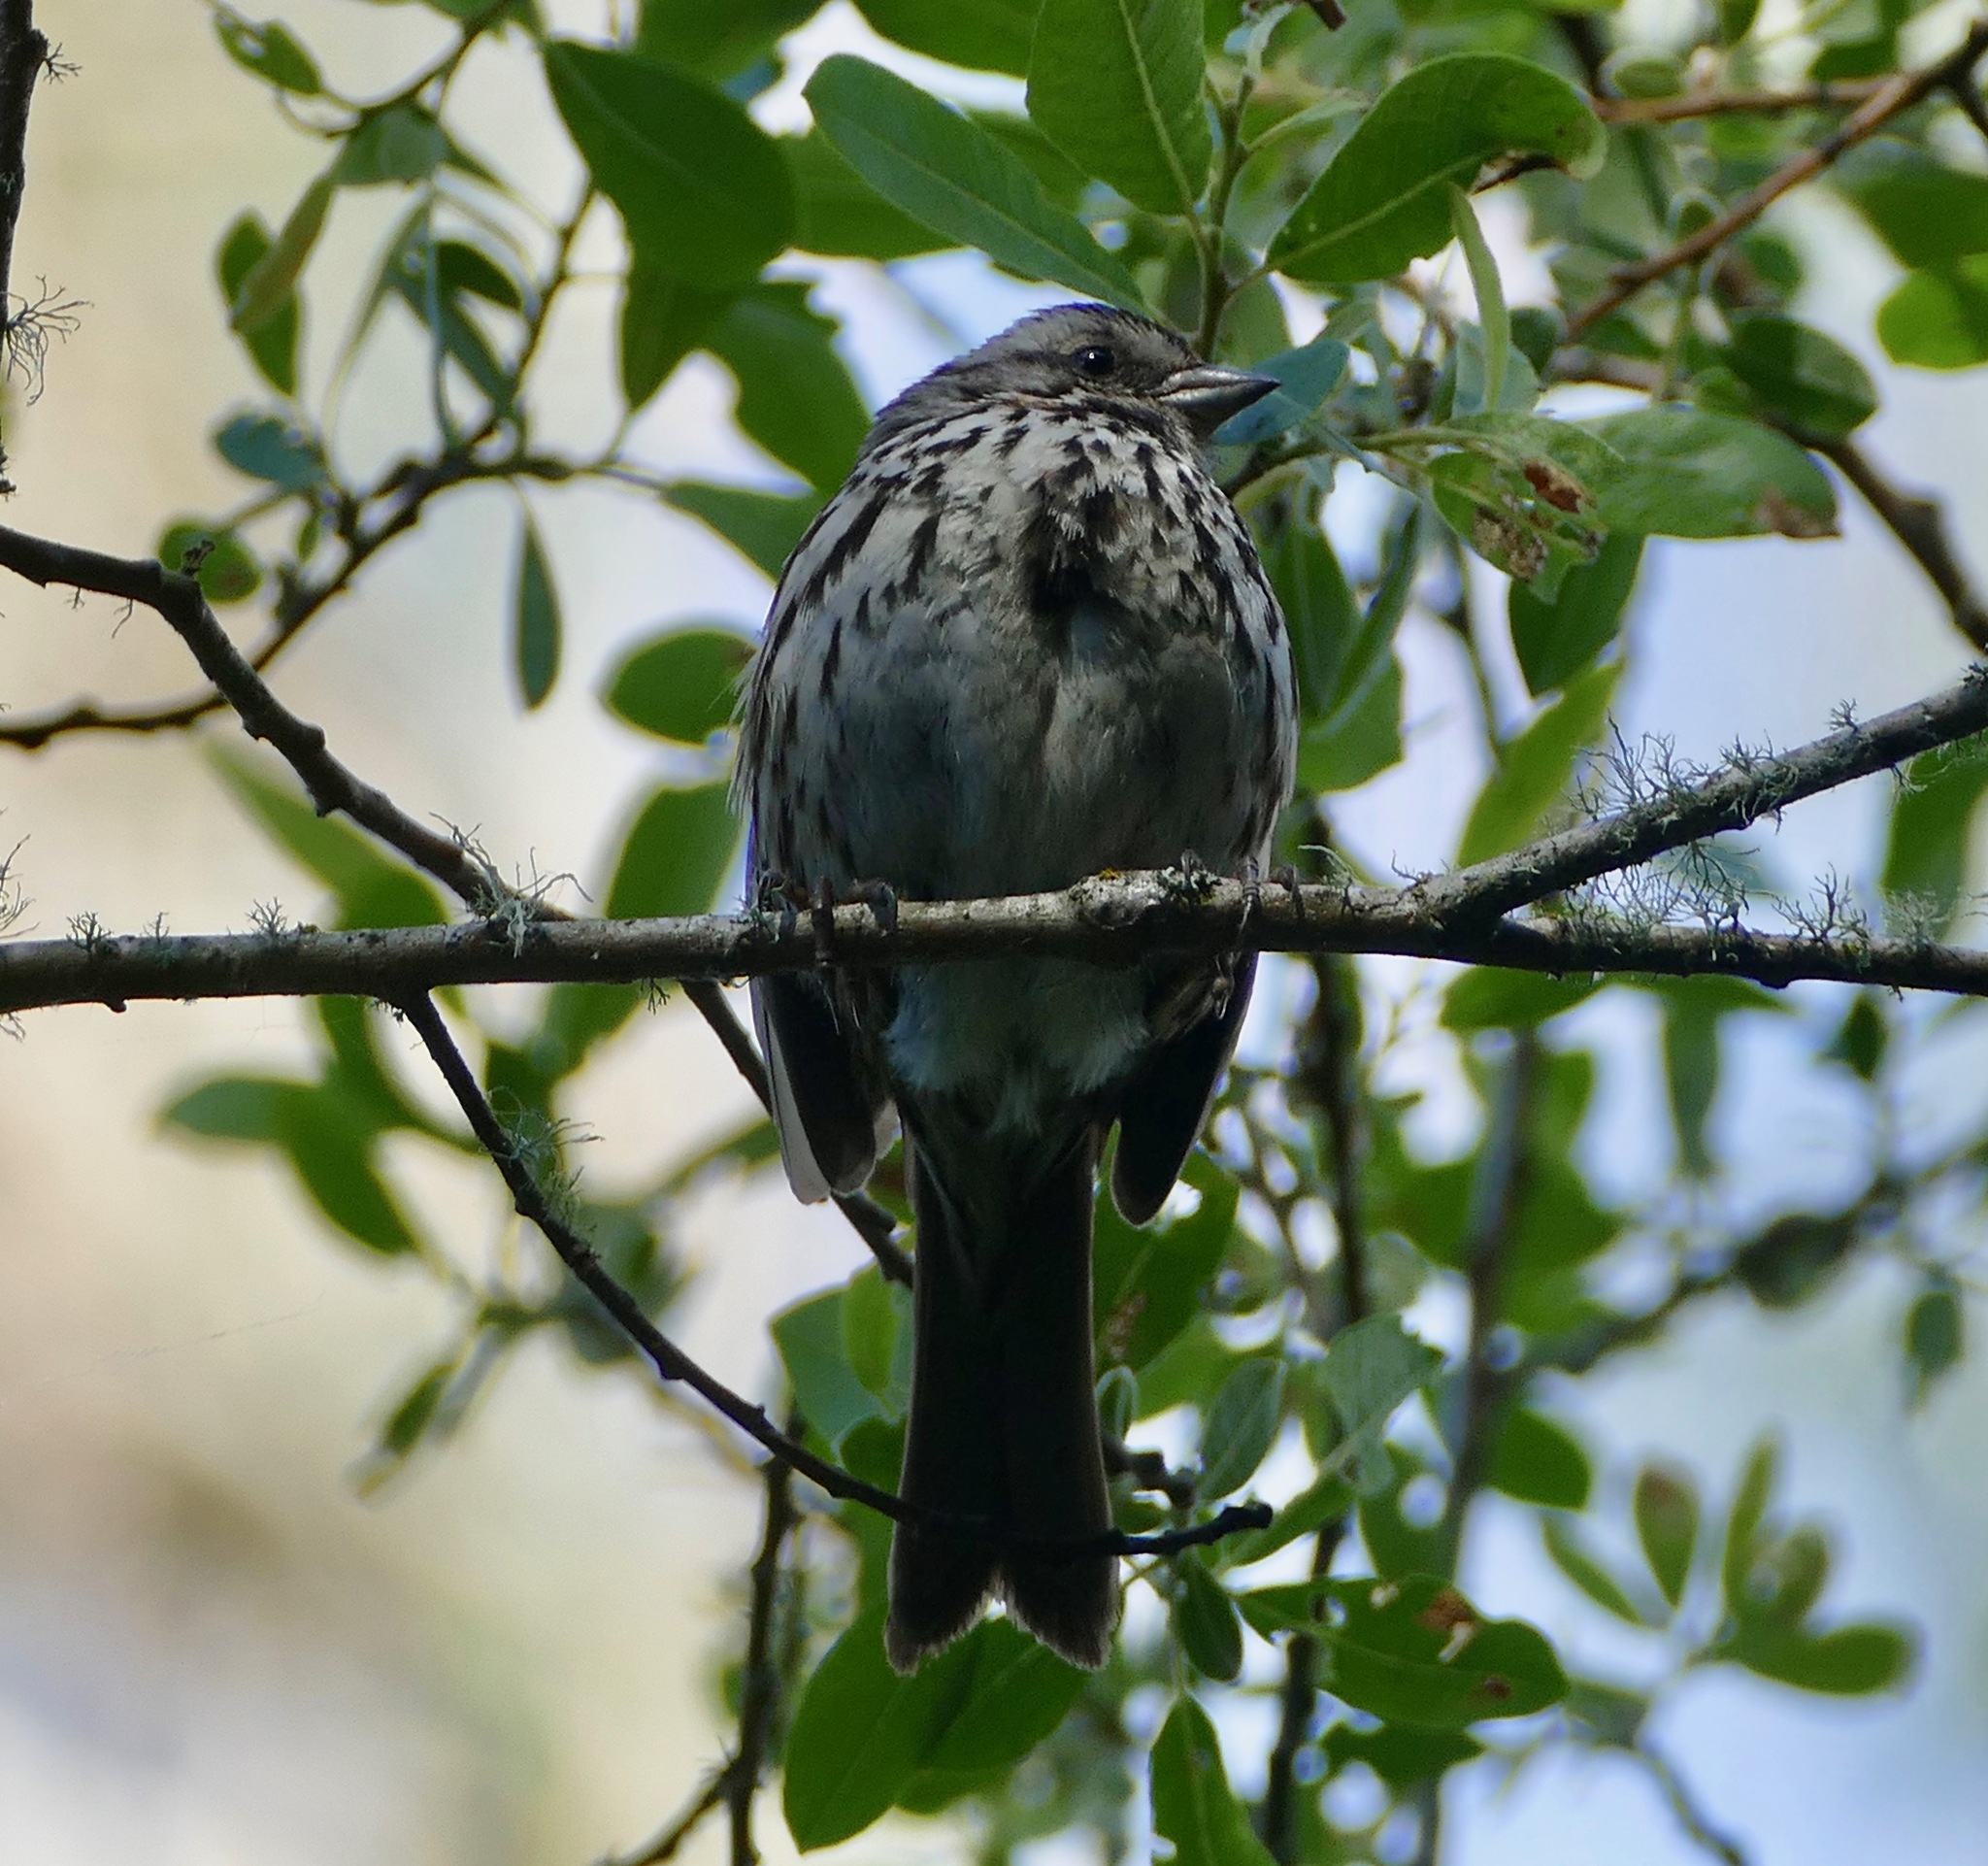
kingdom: Animalia
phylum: Chordata
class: Aves
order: Passeriformes
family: Passerellidae
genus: Melospiza
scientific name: Melospiza melodia
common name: Song sparrow
